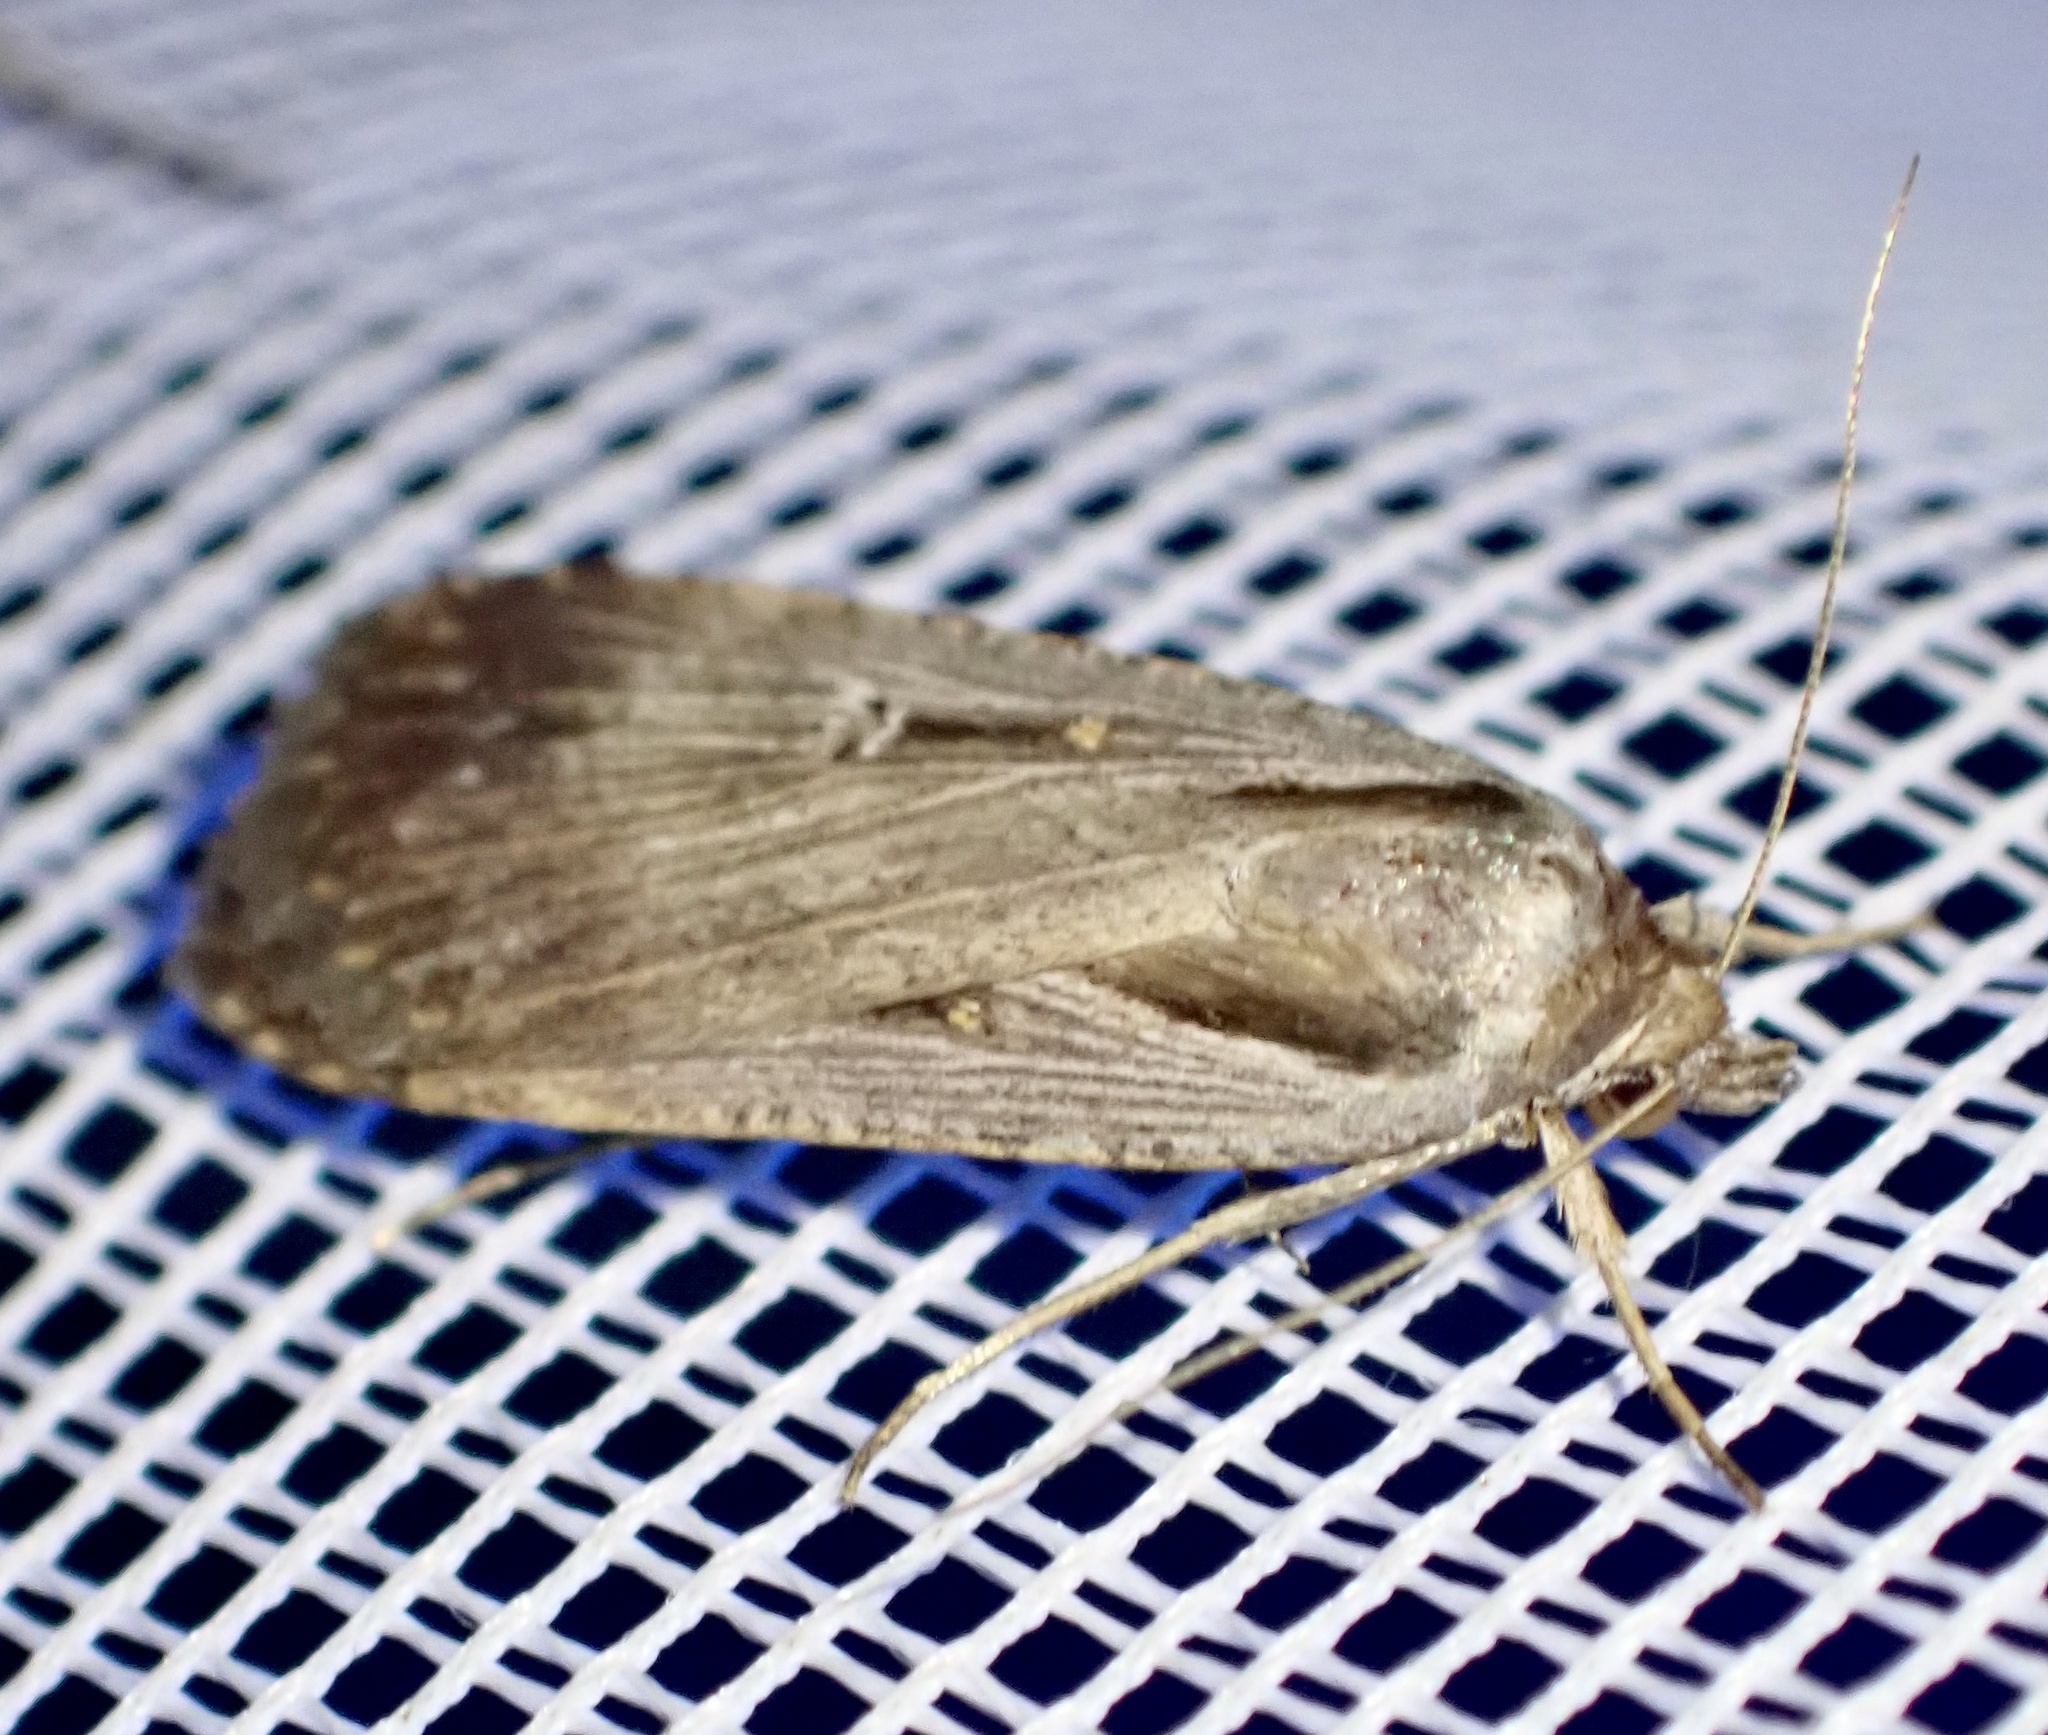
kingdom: Animalia
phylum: Arthropoda
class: Insecta
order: Lepidoptera
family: Noctuidae
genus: Tathorhynchus
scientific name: Tathorhynchus exsiccata
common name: Levant blackneck moth
